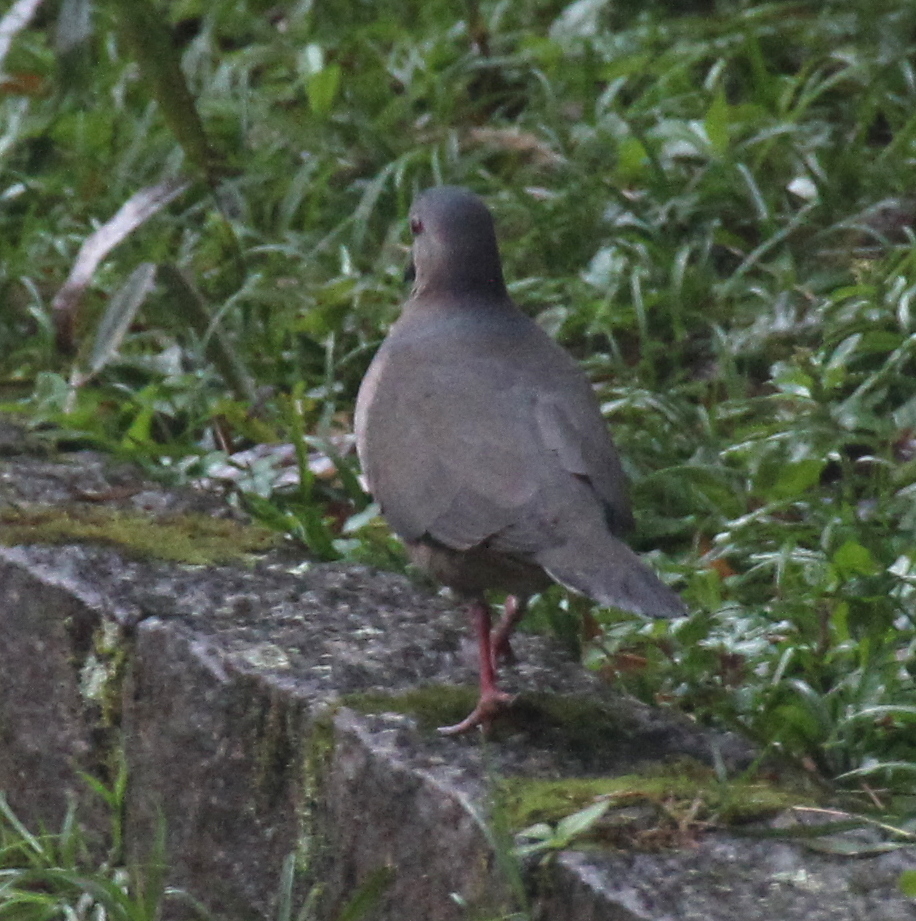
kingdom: Animalia
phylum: Chordata
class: Aves
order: Columbiformes
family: Columbidae
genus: Leptotila
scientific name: Leptotila verreauxi
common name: White-tipped dove
